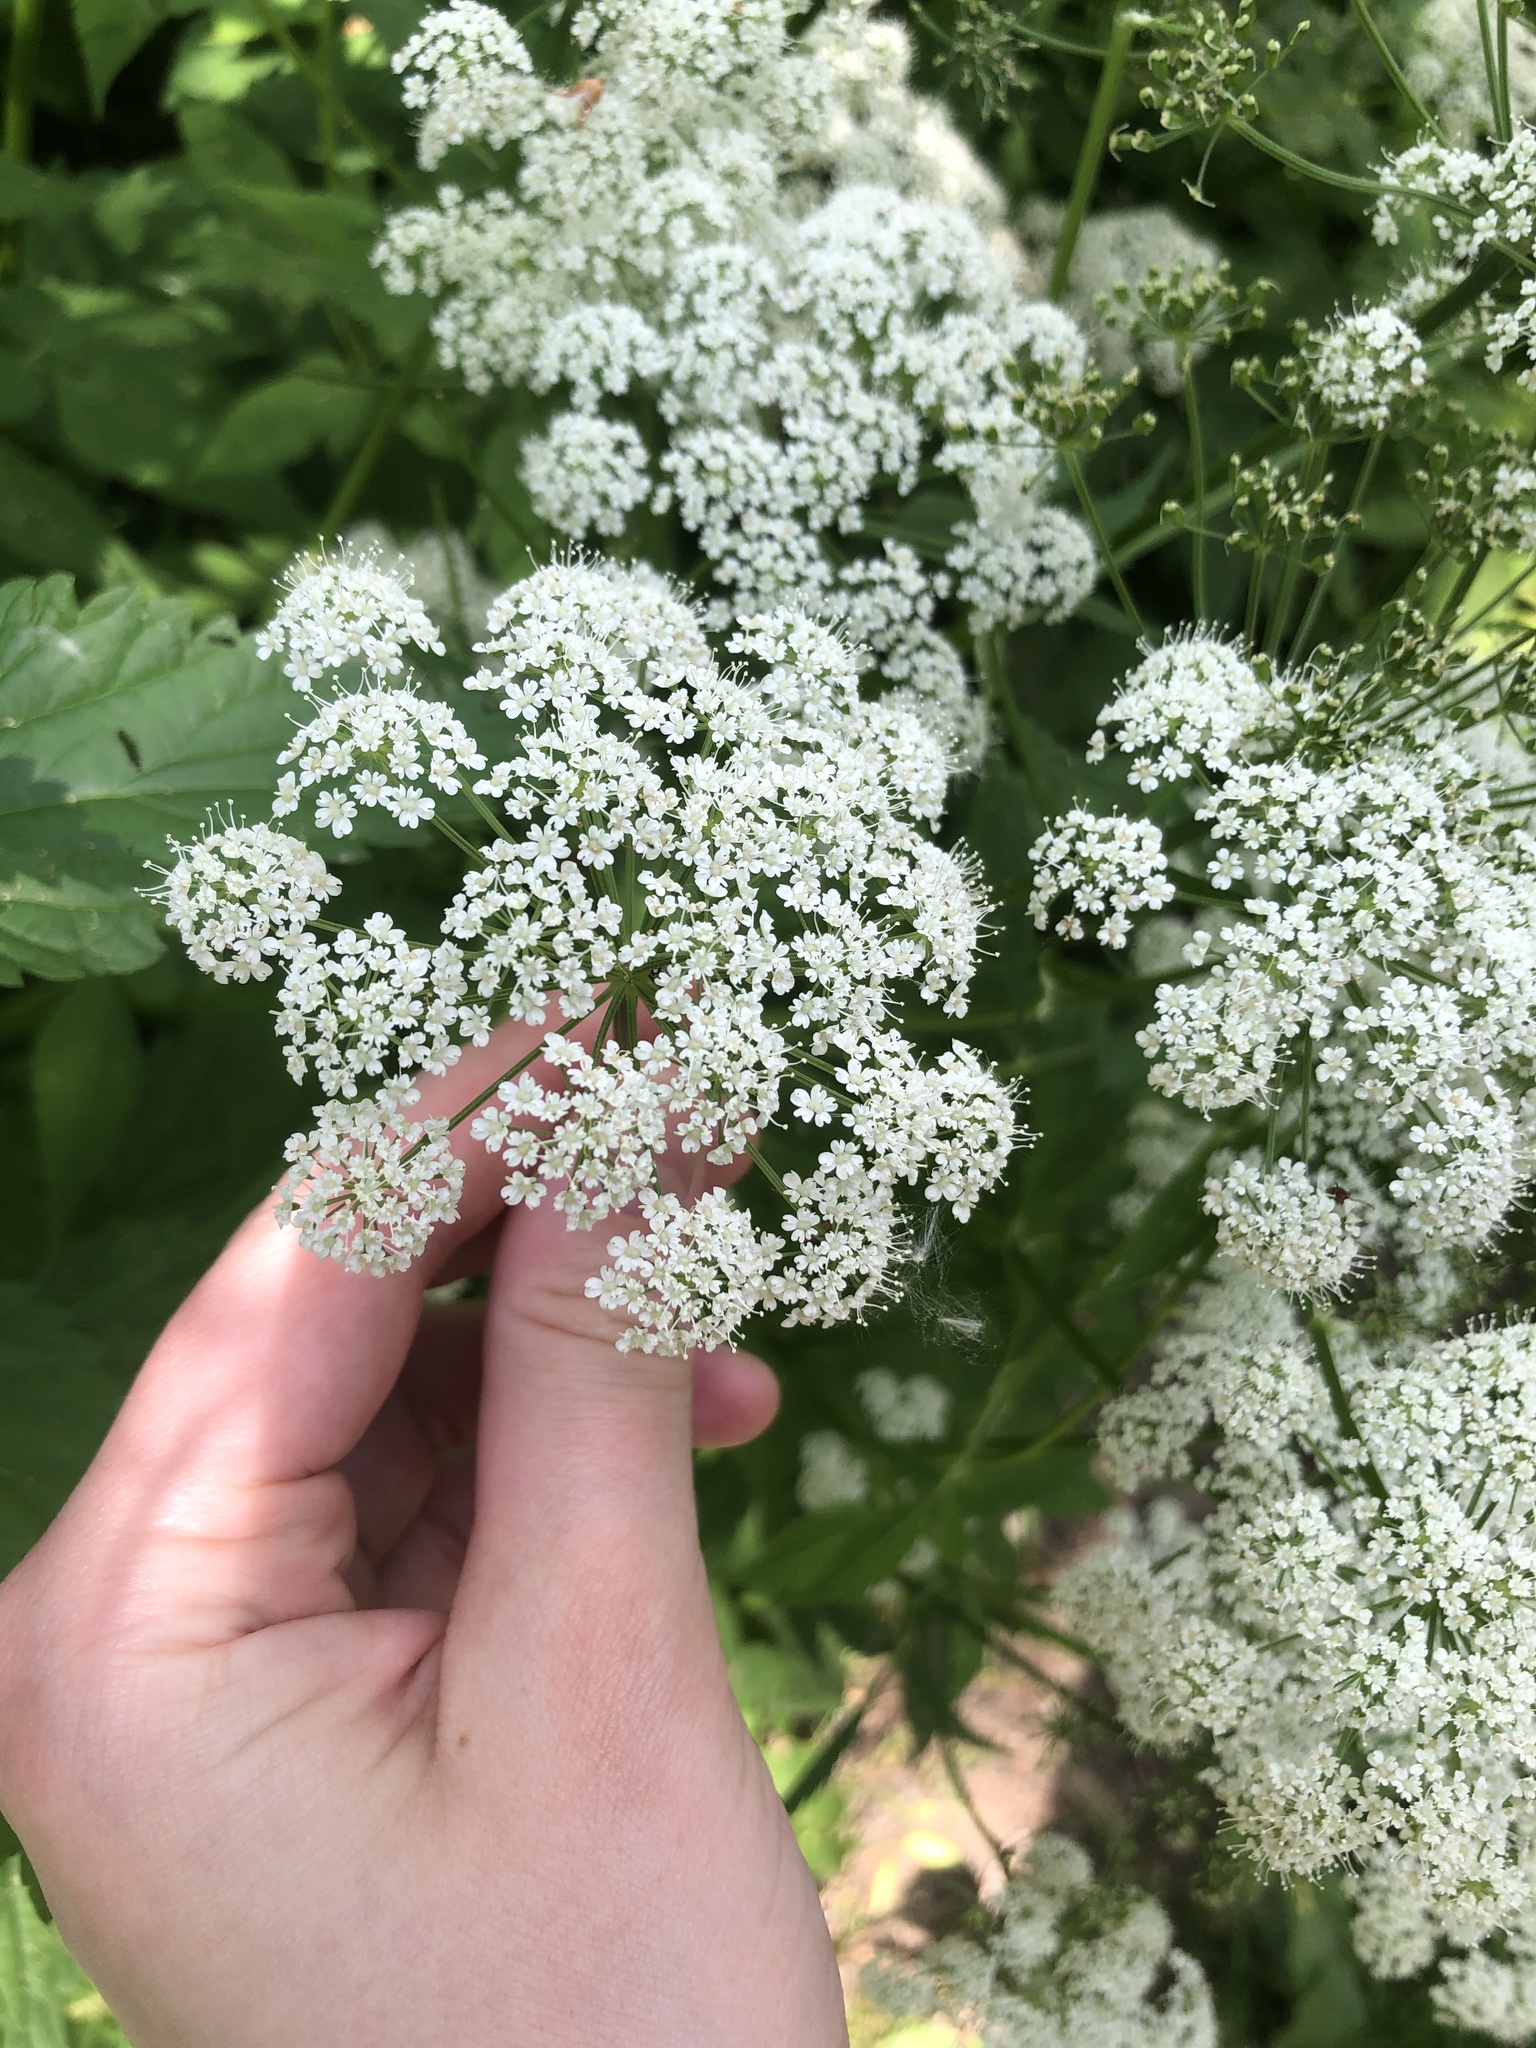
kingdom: Plantae
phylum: Tracheophyta
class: Magnoliopsida
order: Apiales
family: Apiaceae
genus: Aegopodium
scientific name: Aegopodium podagraria
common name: Ground-elder
